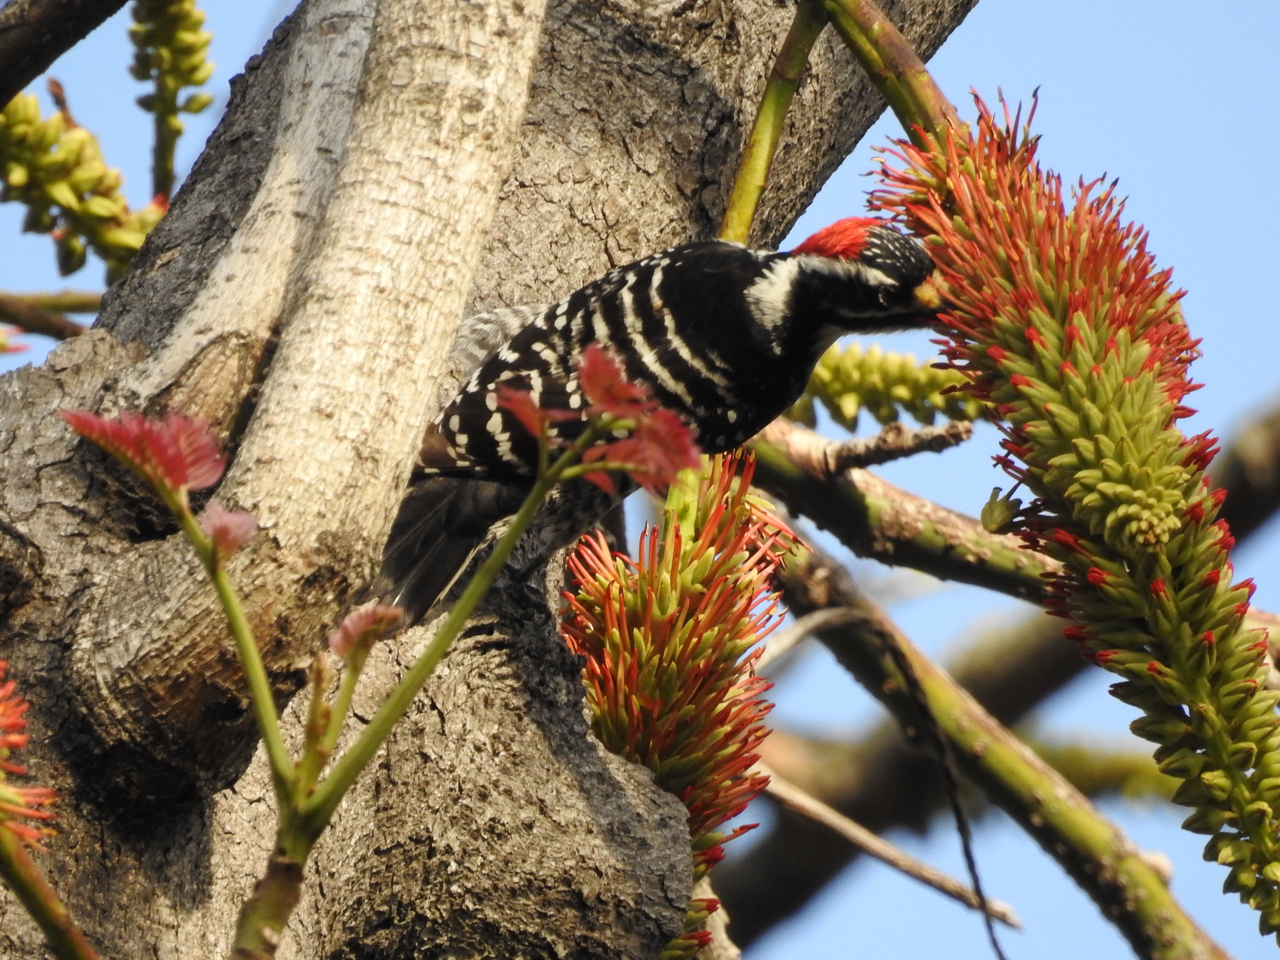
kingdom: Animalia
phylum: Chordata
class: Aves
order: Piciformes
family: Picidae
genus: Dryobates
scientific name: Dryobates nuttallii
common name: Nuttall's woodpecker
